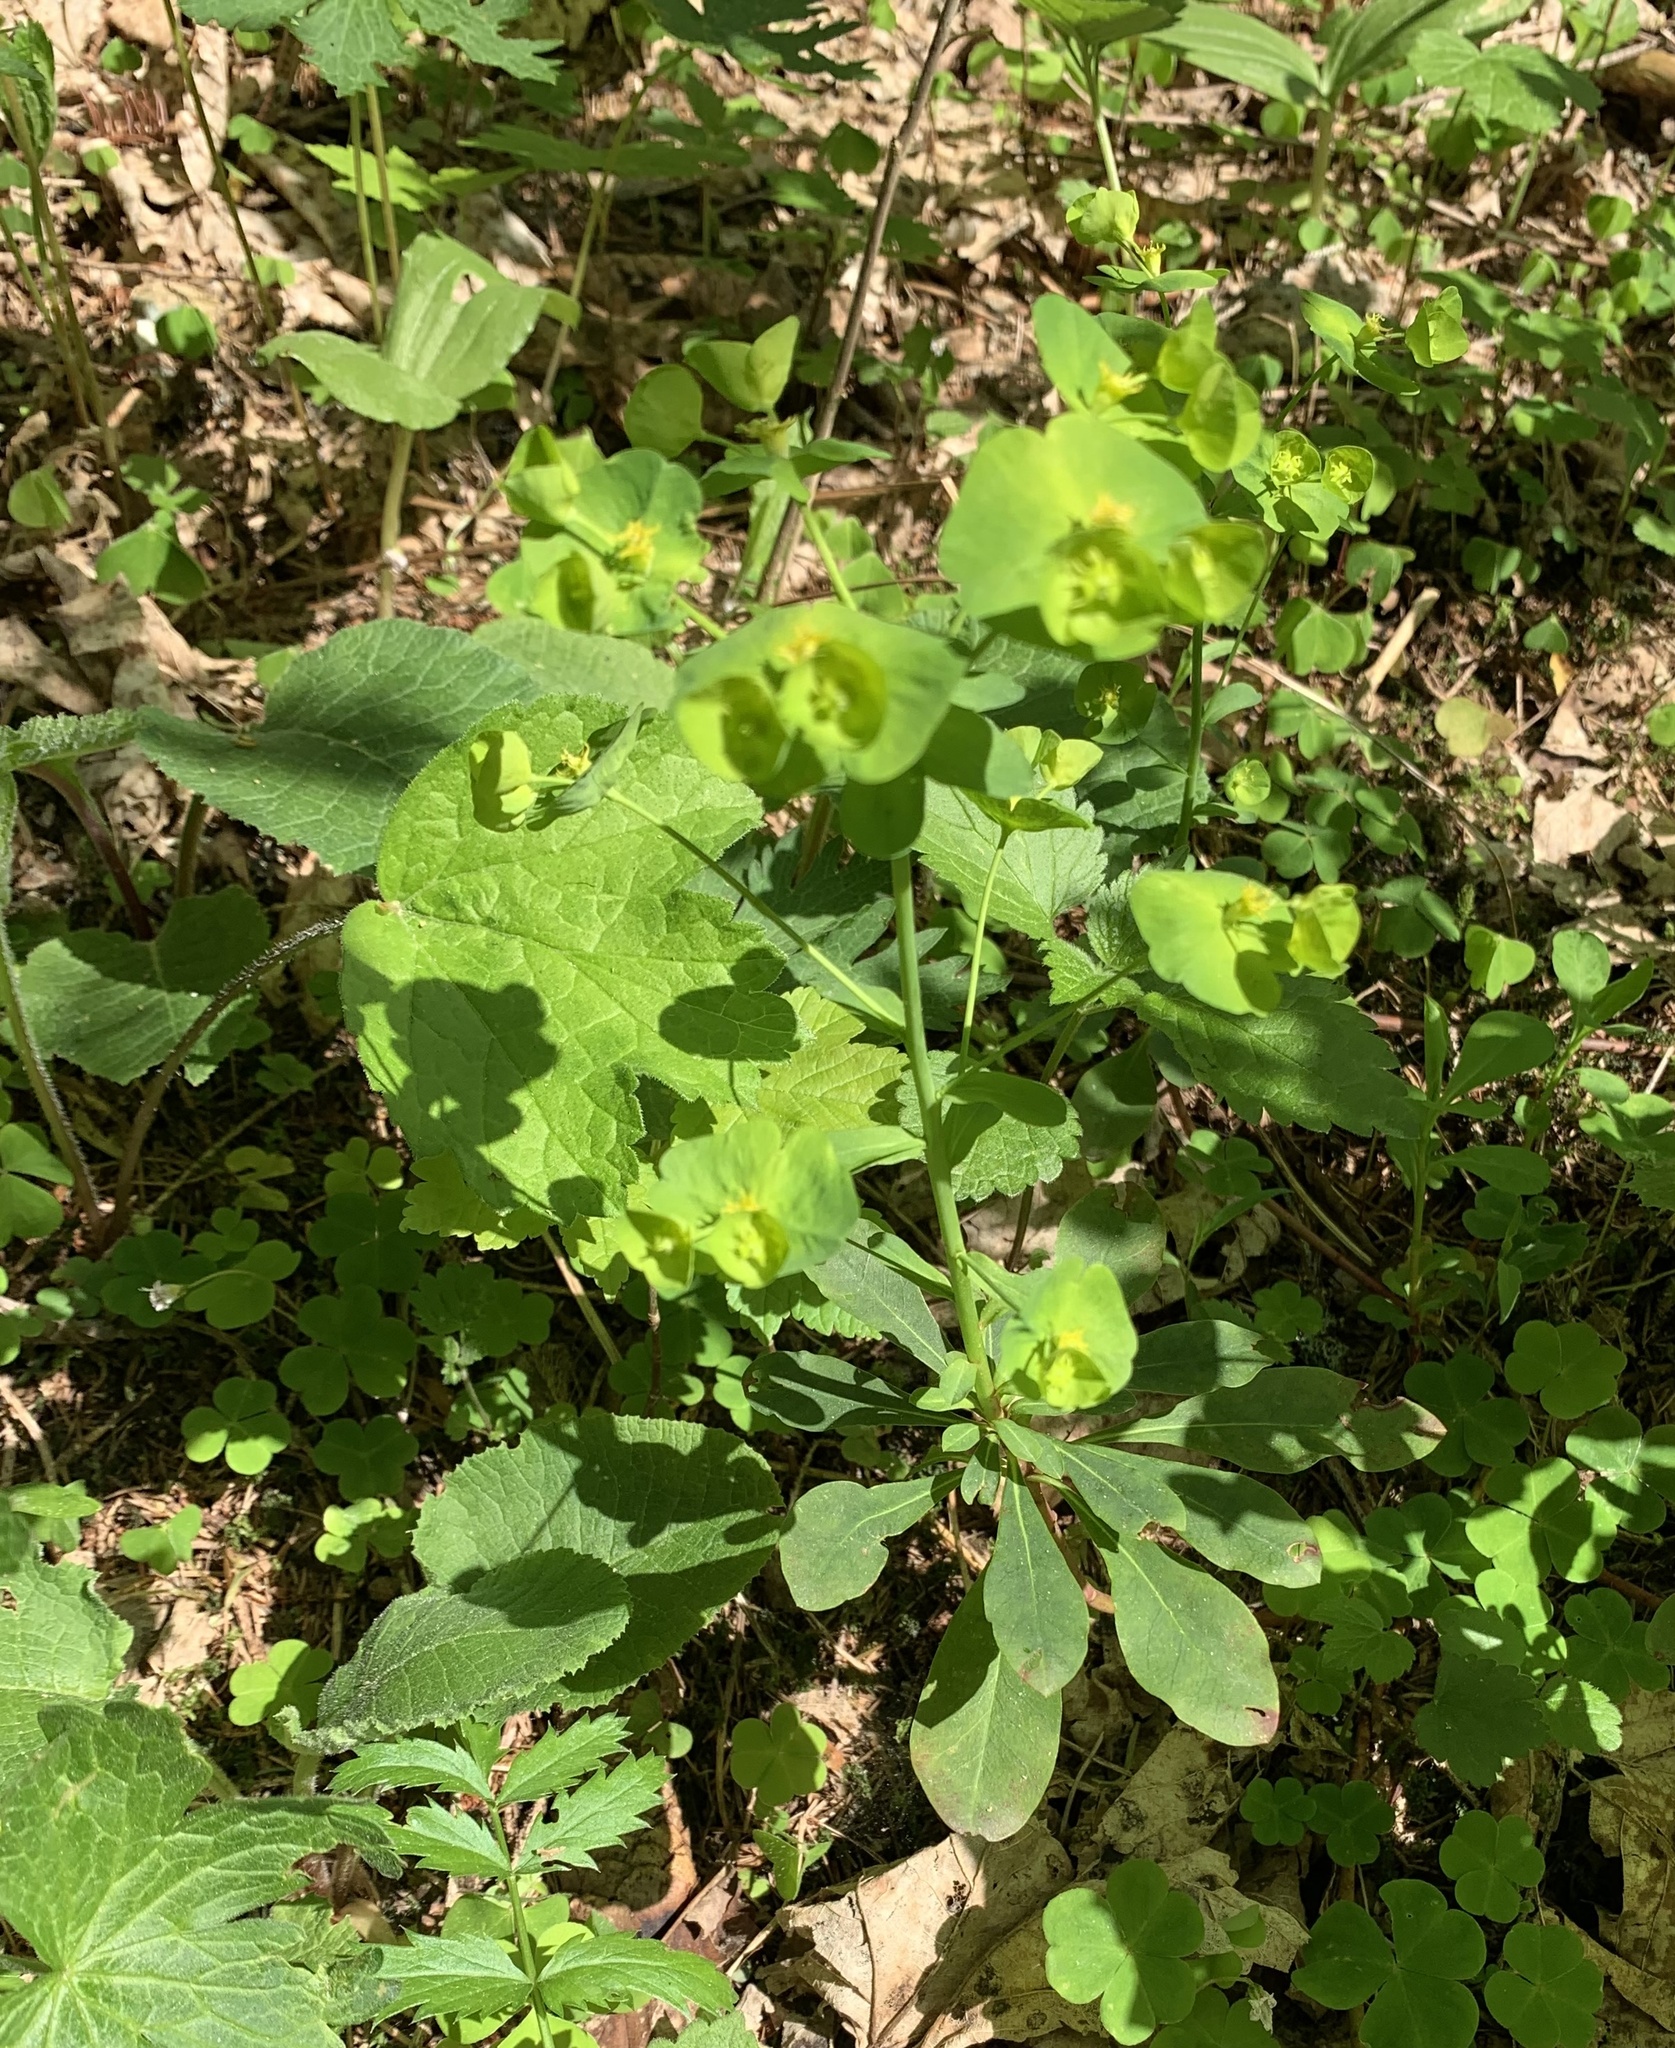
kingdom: Plantae
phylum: Tracheophyta
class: Magnoliopsida
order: Malpighiales
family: Euphorbiaceae
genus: Euphorbia
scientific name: Euphorbia amygdaloides
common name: Wood spurge
